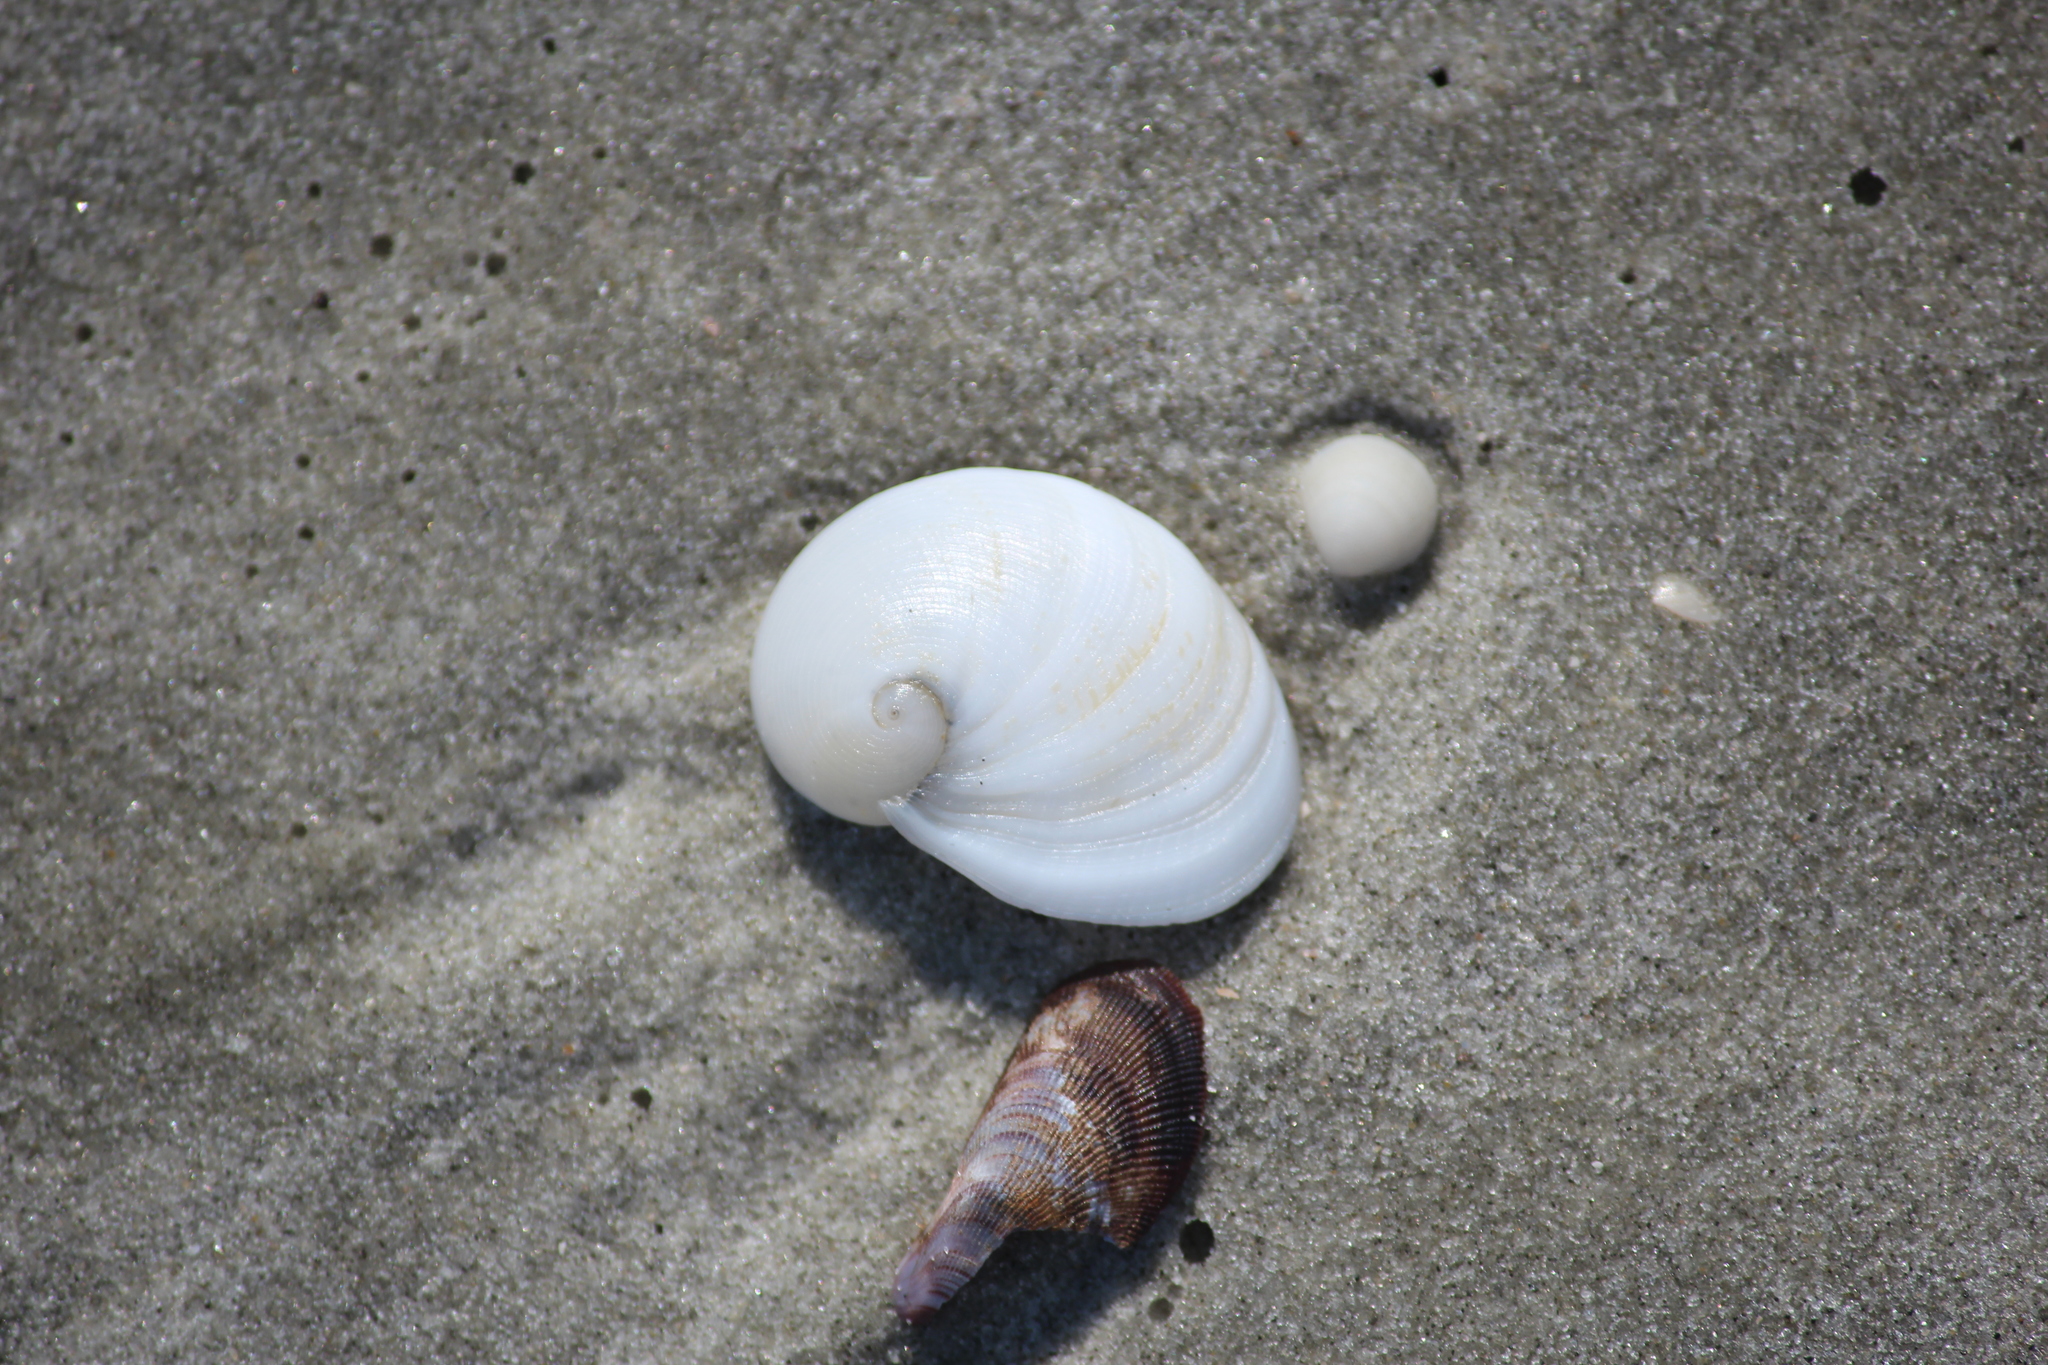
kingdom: Animalia
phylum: Mollusca
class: Gastropoda
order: Littorinimorpha
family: Naticidae
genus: Sinum
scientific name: Sinum perspectivum
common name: White baby ear
